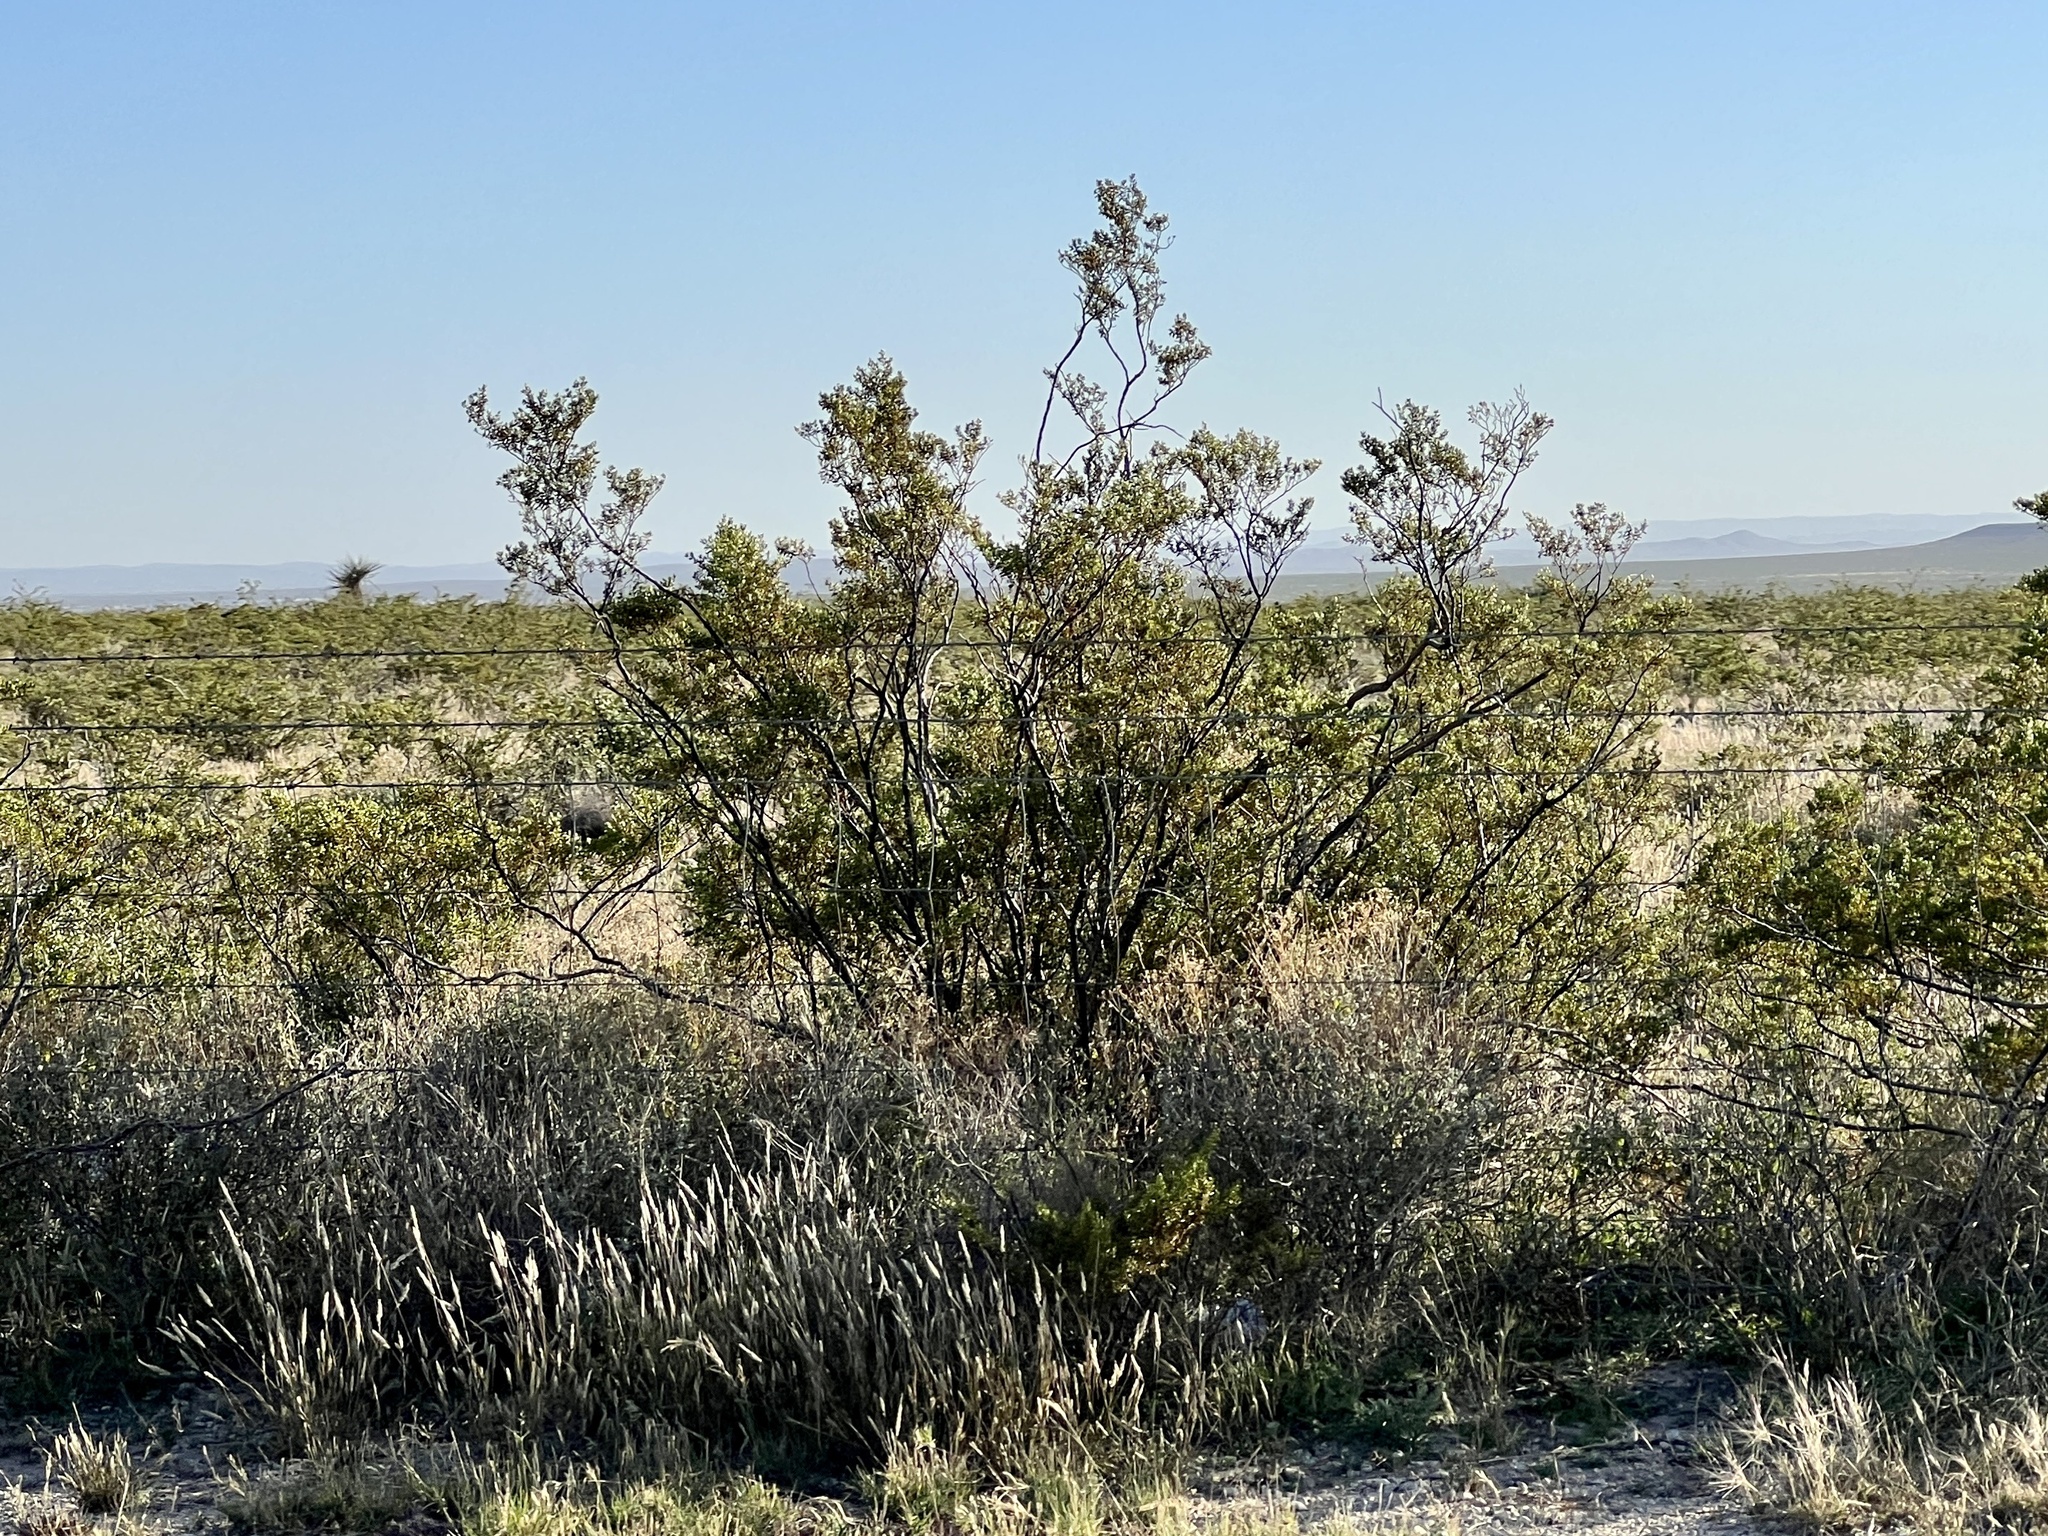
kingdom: Plantae
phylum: Tracheophyta
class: Magnoliopsida
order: Zygophyllales
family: Zygophyllaceae
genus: Larrea
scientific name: Larrea tridentata
